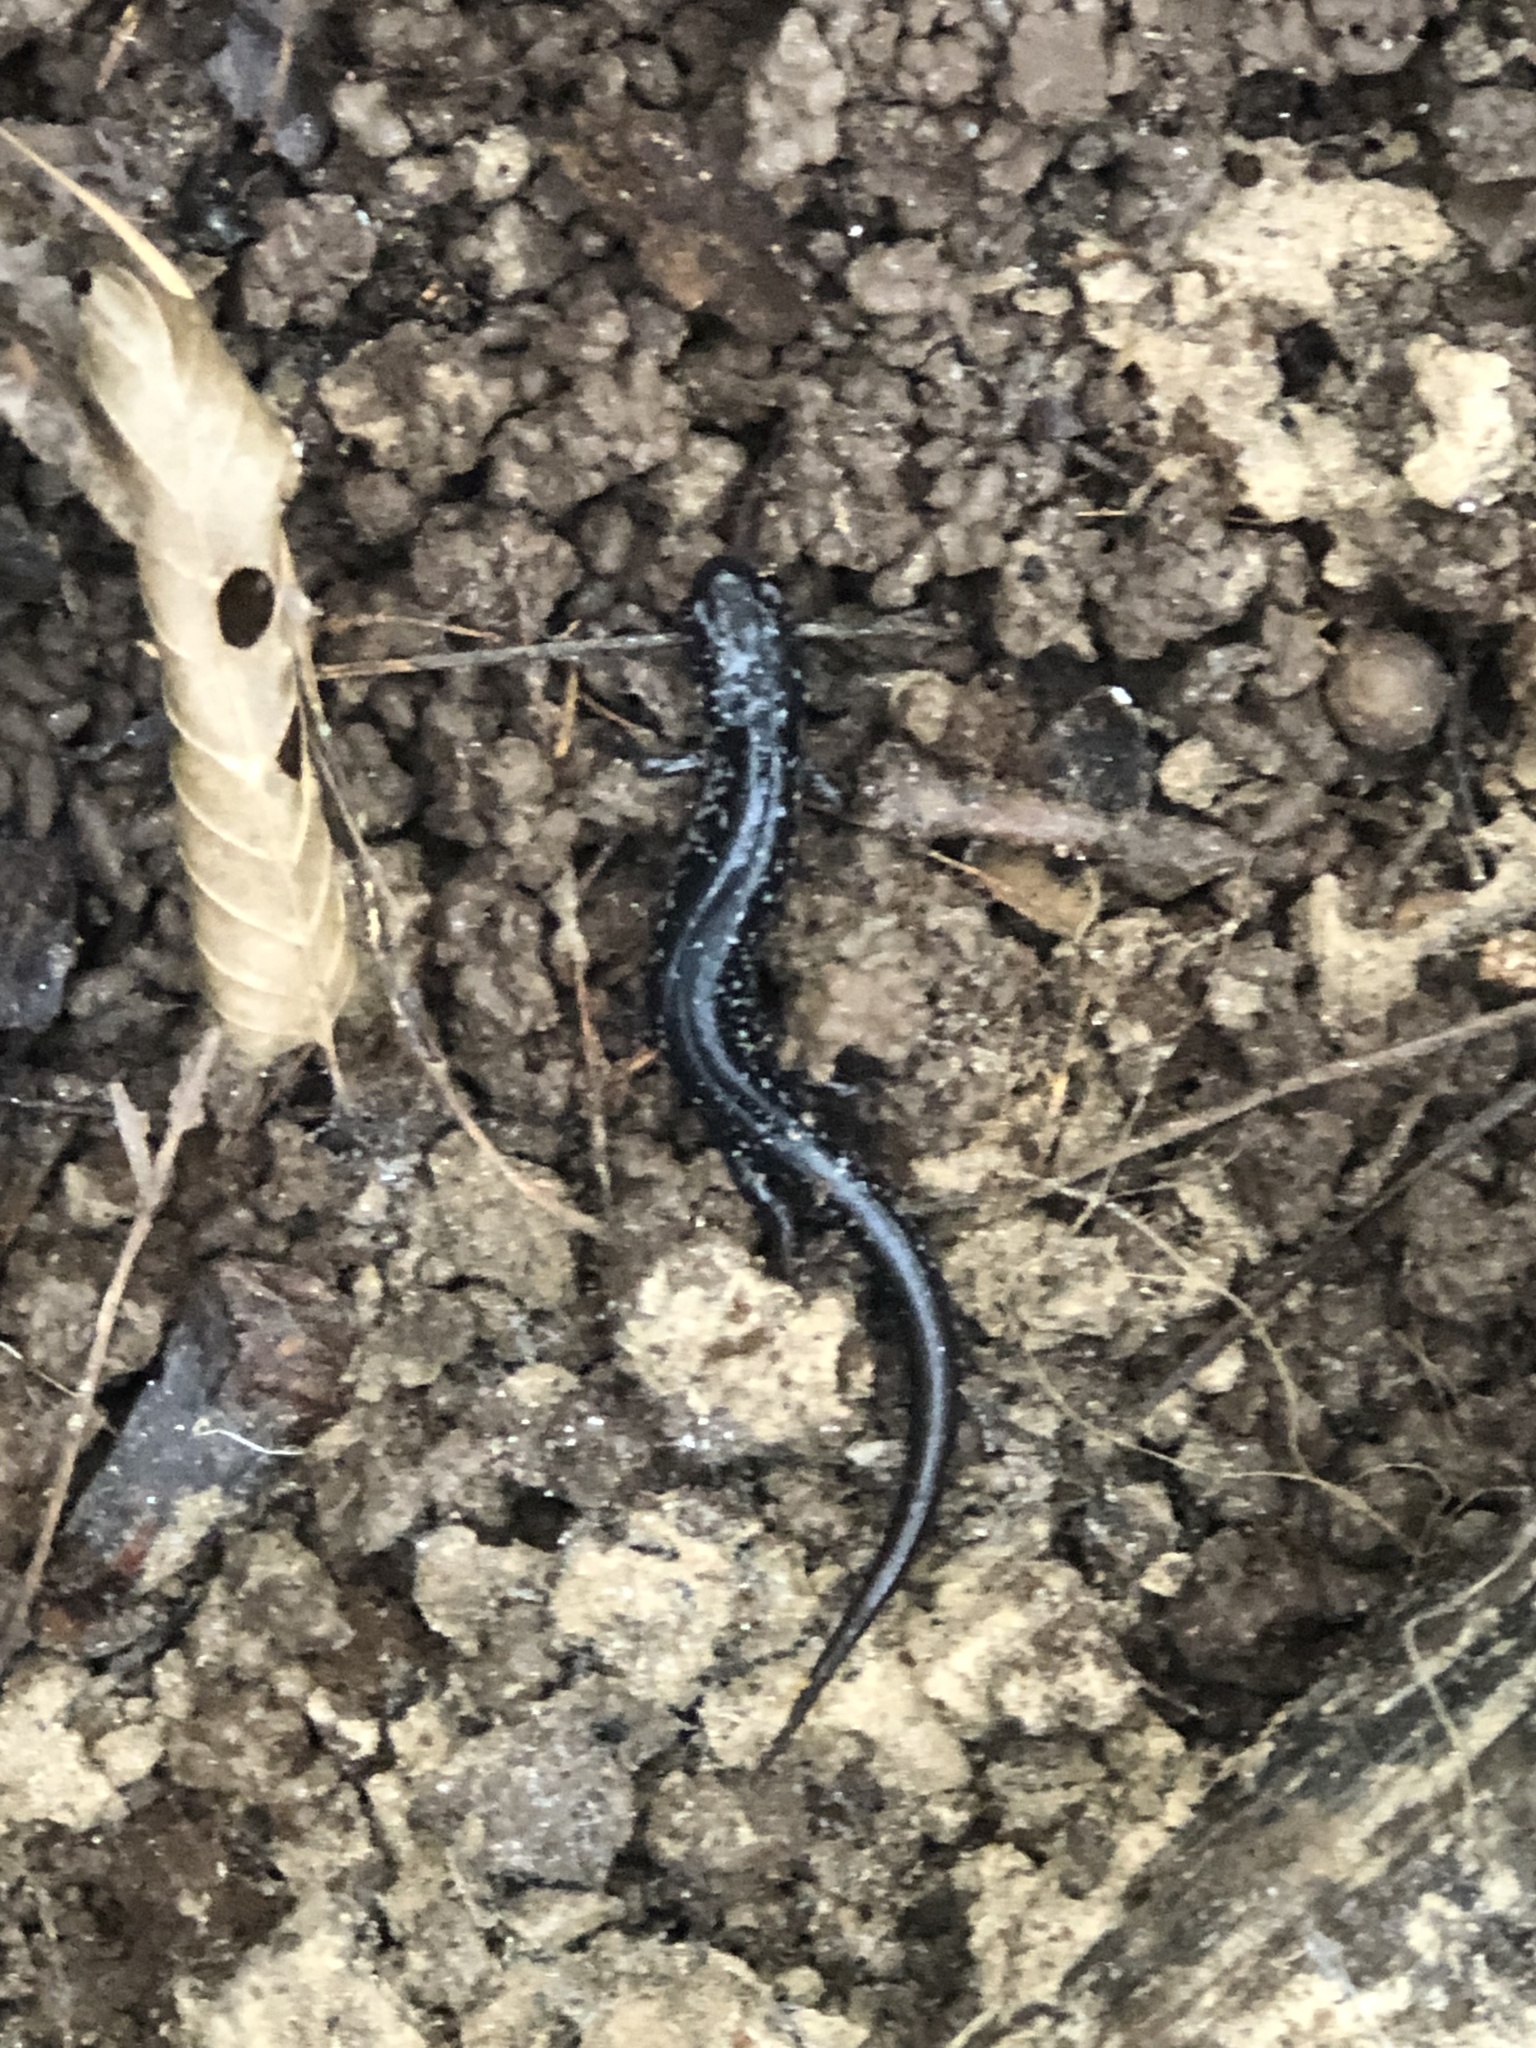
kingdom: Animalia
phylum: Chordata
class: Amphibia
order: Caudata
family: Plethodontidae
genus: Plethodon
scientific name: Plethodon glutinosus
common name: Northern slimy salamander
